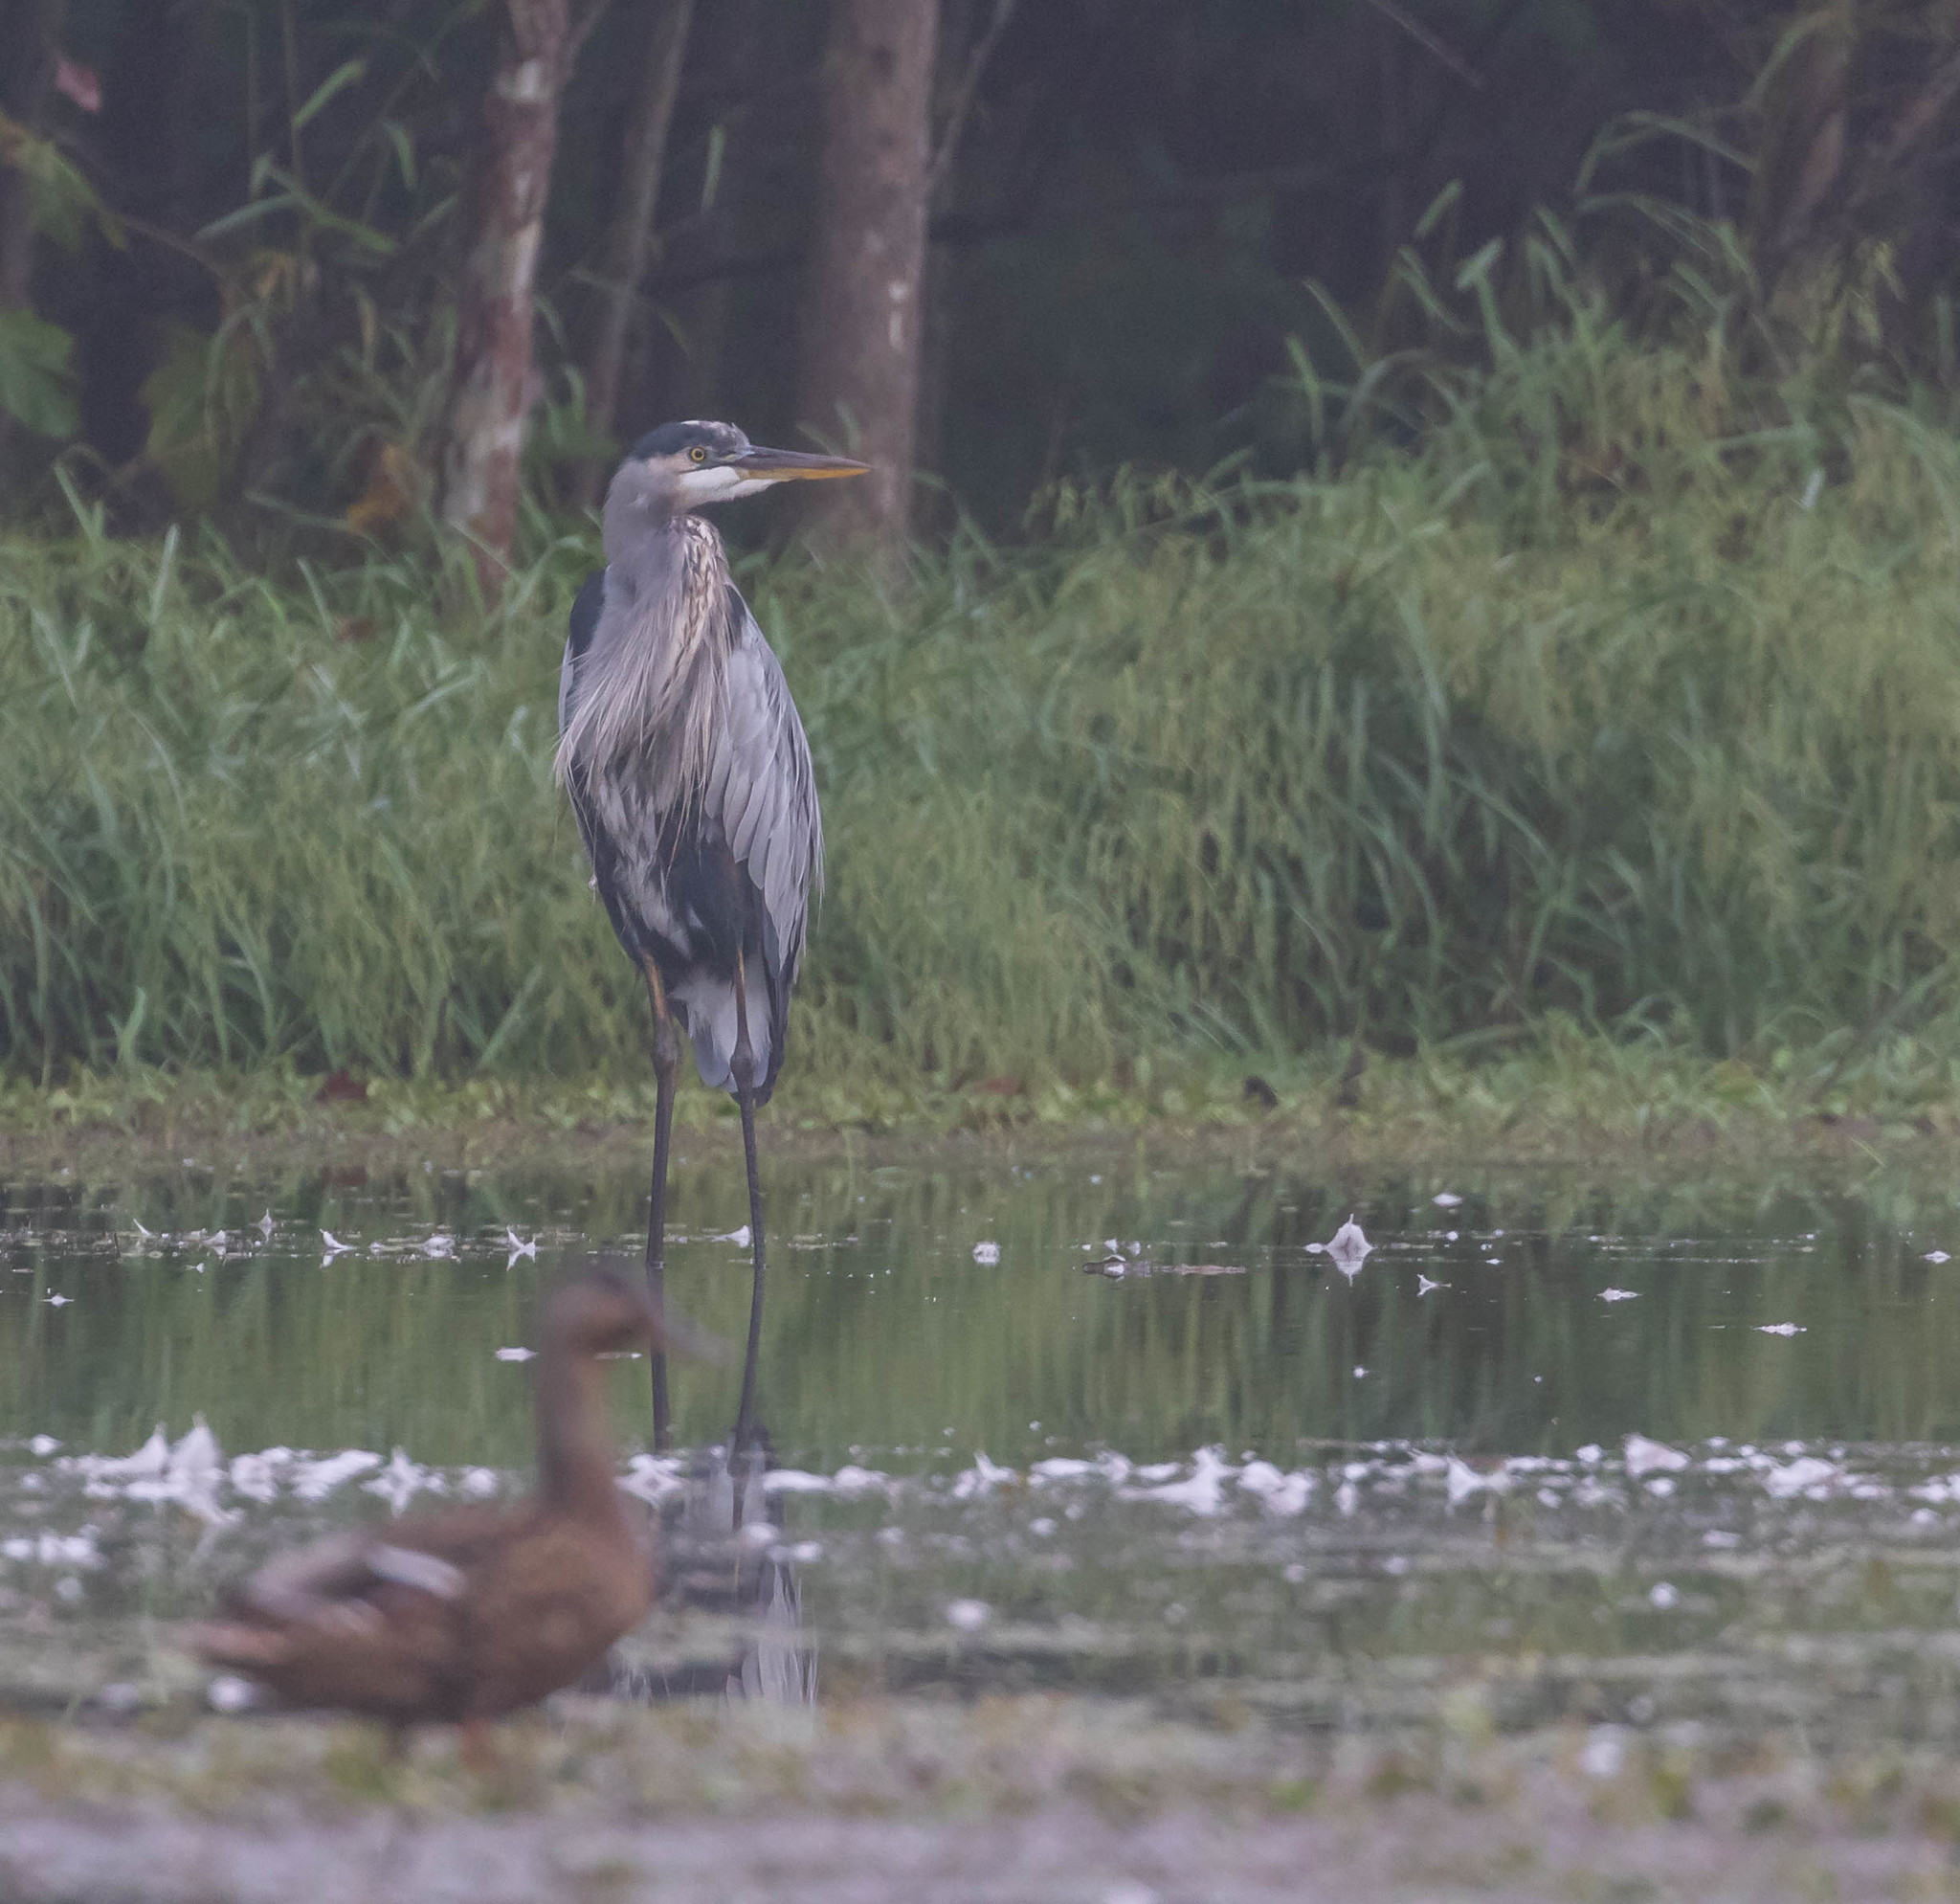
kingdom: Animalia
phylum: Chordata
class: Aves
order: Pelecaniformes
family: Ardeidae
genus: Ardea
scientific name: Ardea herodias
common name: Great blue heron
